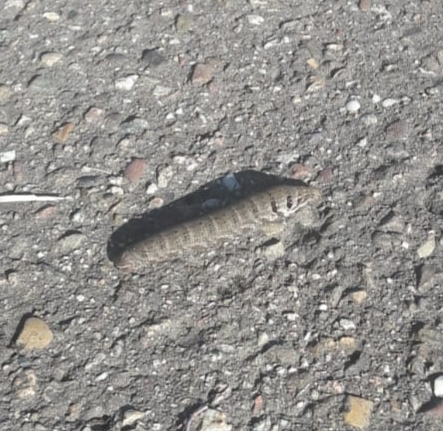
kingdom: Animalia
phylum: Arthropoda
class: Insecta
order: Lepidoptera
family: Sphingidae
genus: Deilephila
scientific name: Deilephila porcellus
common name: Small elephant hawk-moth
